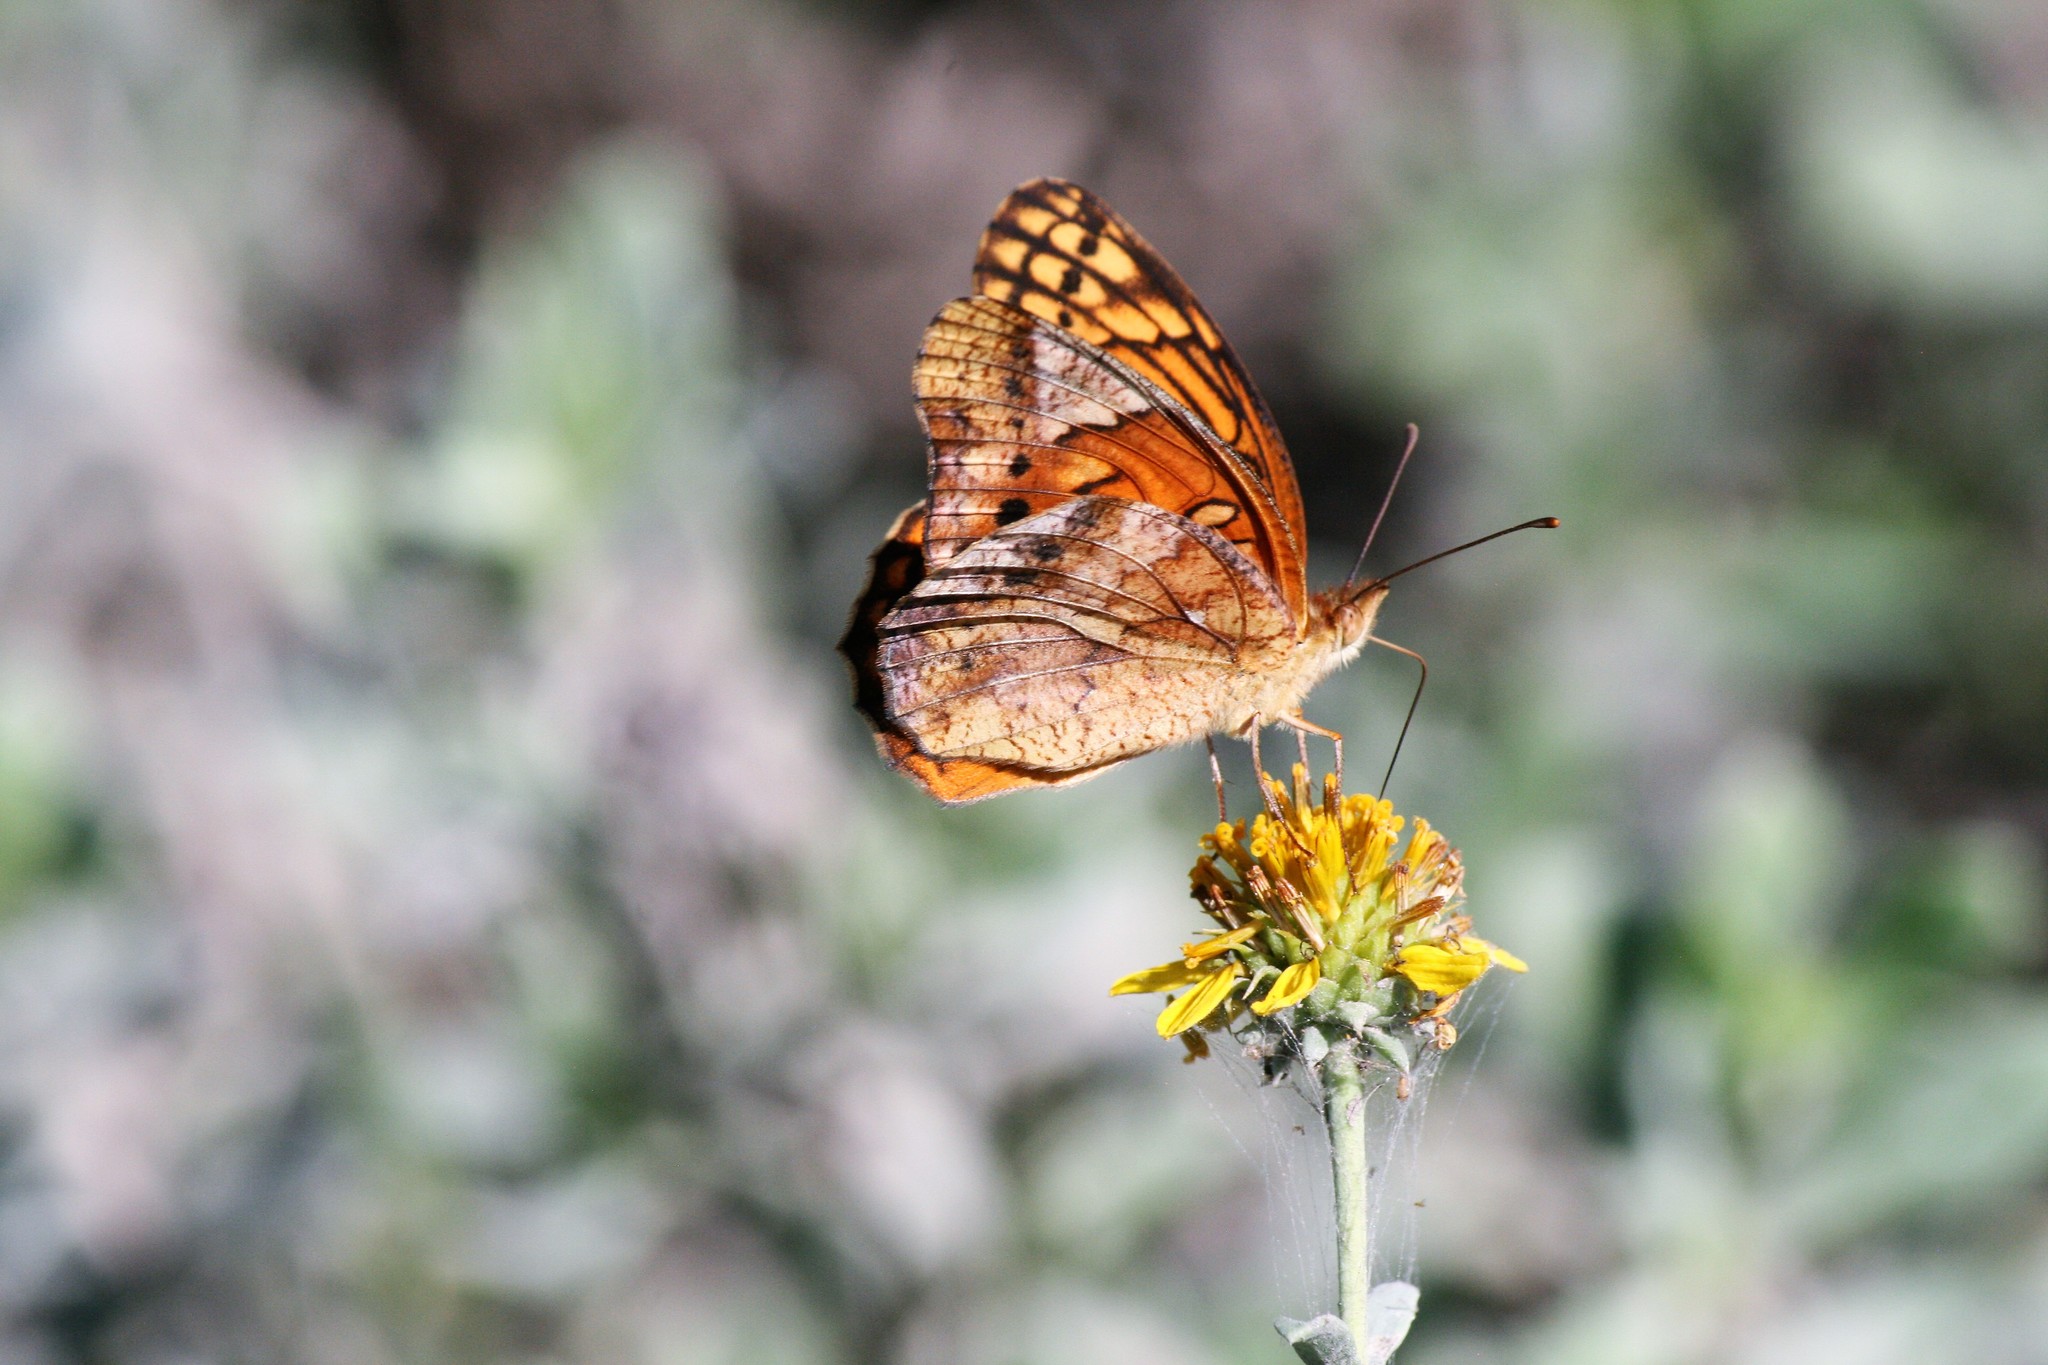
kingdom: Animalia
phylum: Arthropoda
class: Insecta
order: Lepidoptera
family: Nymphalidae
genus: Euptoieta
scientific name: Euptoieta hegesia
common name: Mexican fritillary
